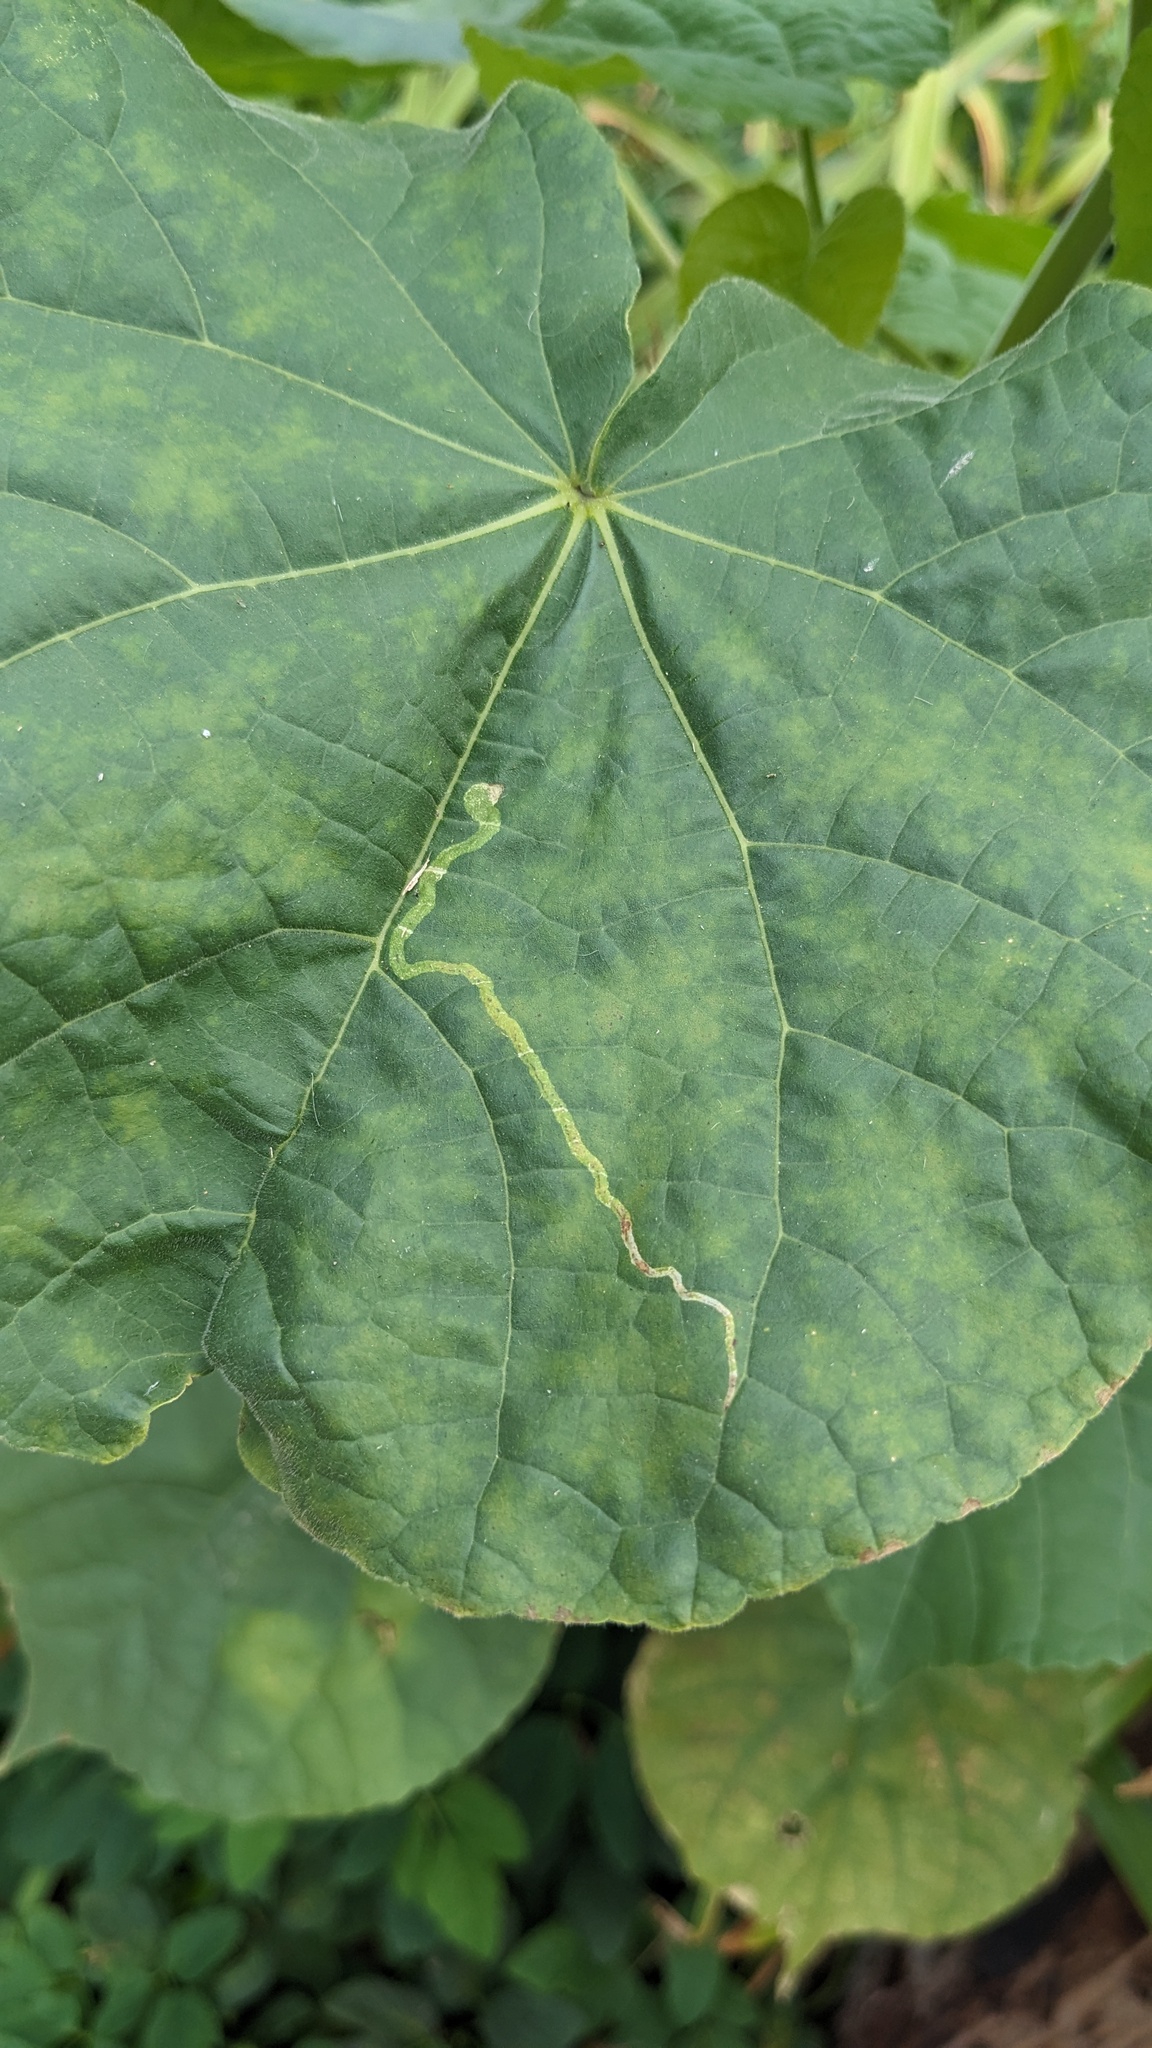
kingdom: Animalia
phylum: Arthropoda
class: Insecta
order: Diptera
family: Agromyzidae
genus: Calycomyza
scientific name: Calycomyza malvae
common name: Mallow leaf miner
